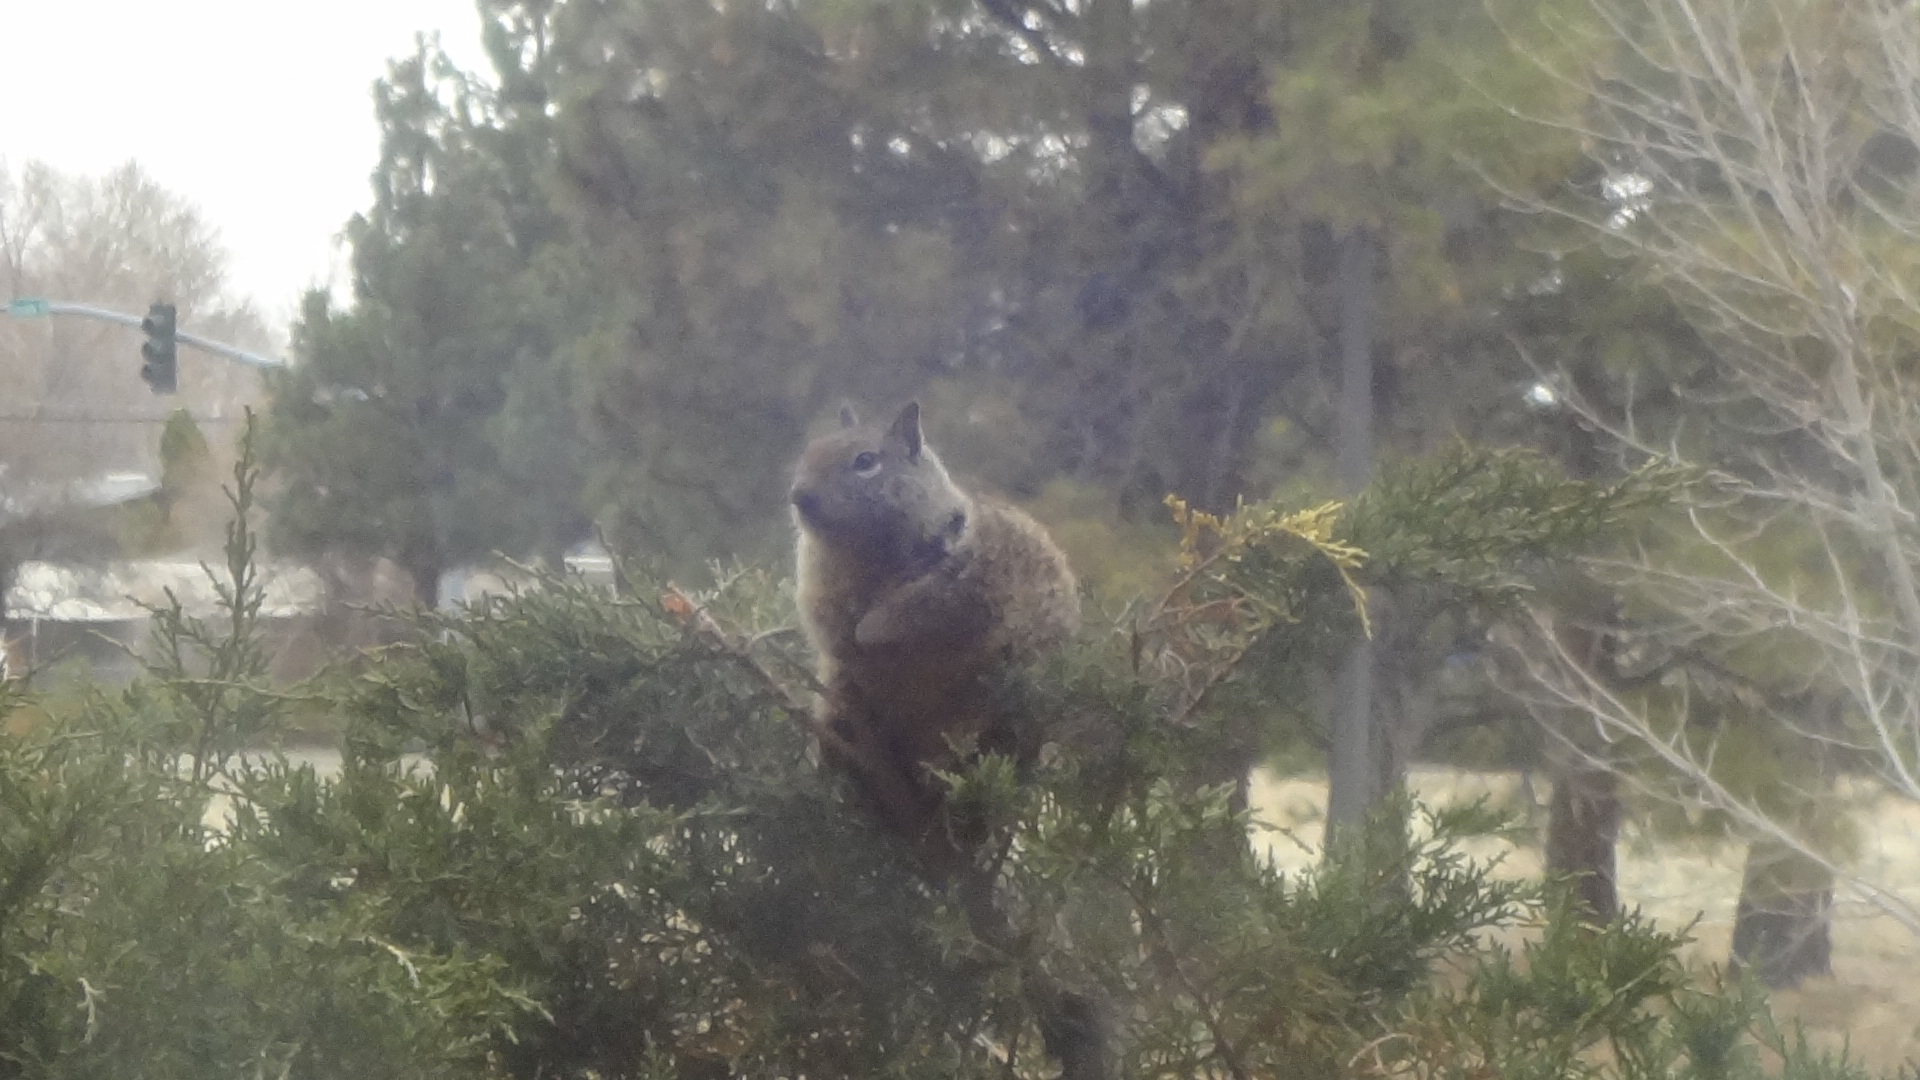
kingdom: Animalia
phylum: Chordata
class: Mammalia
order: Rodentia
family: Sciuridae
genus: Otospermophilus
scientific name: Otospermophilus beecheyi
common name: California ground squirrel
